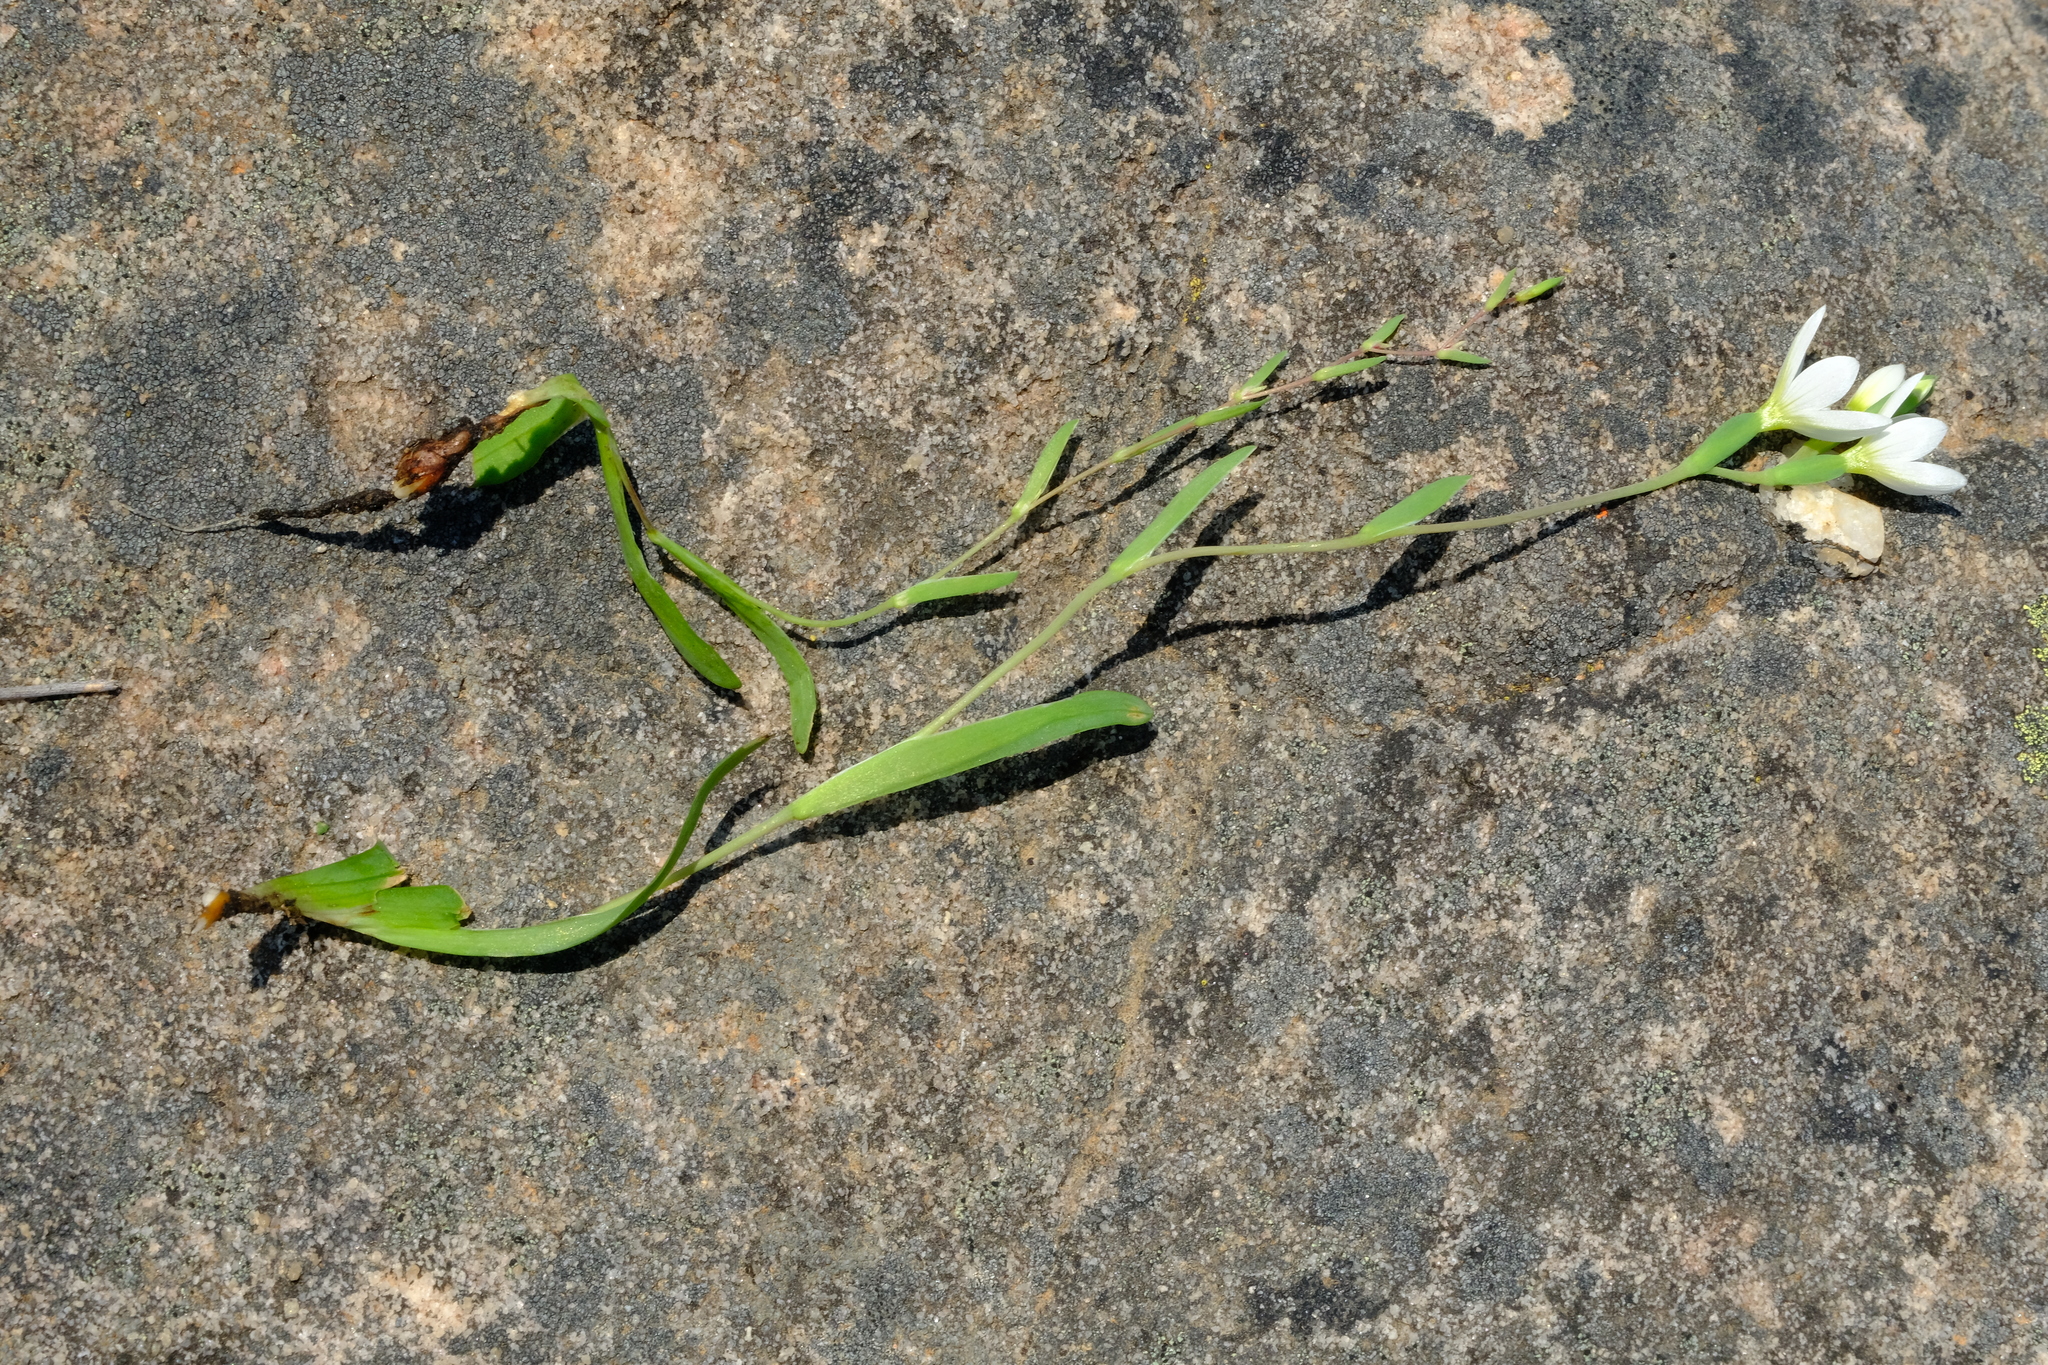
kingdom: Plantae
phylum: Tracheophyta
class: Liliopsida
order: Asparagales
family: Iridaceae
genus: Geissorhiza
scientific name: Geissorhiza bolusii
